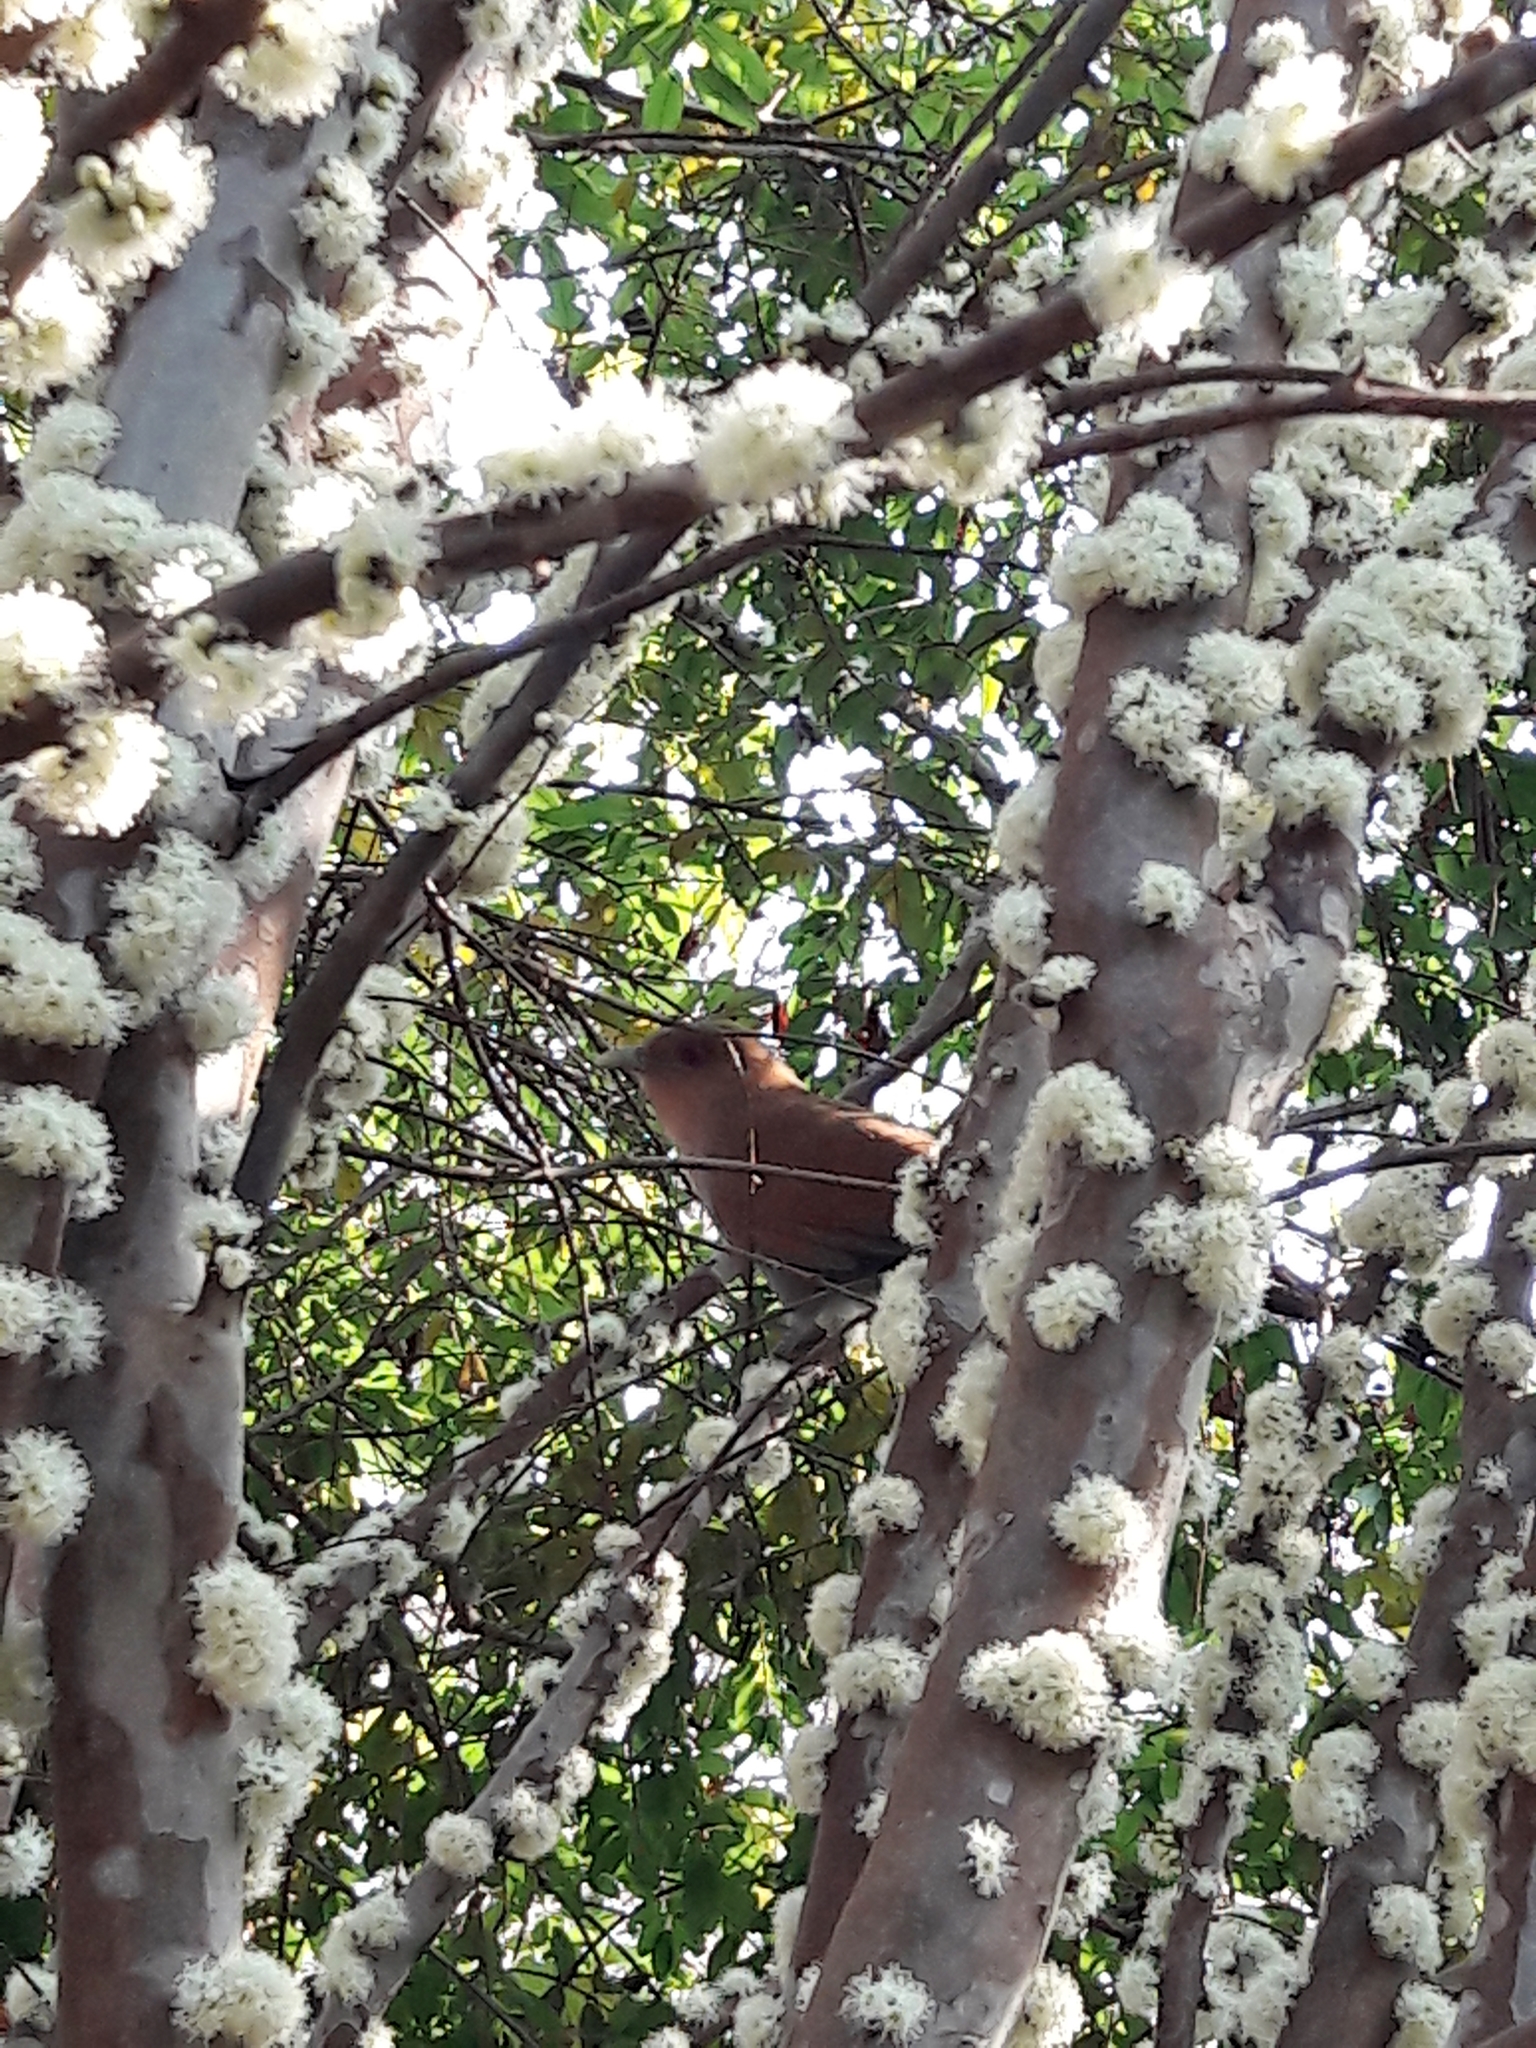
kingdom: Animalia
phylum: Chordata
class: Aves
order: Cuculiformes
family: Cuculidae
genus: Piaya
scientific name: Piaya cayana
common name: Squirrel cuckoo
